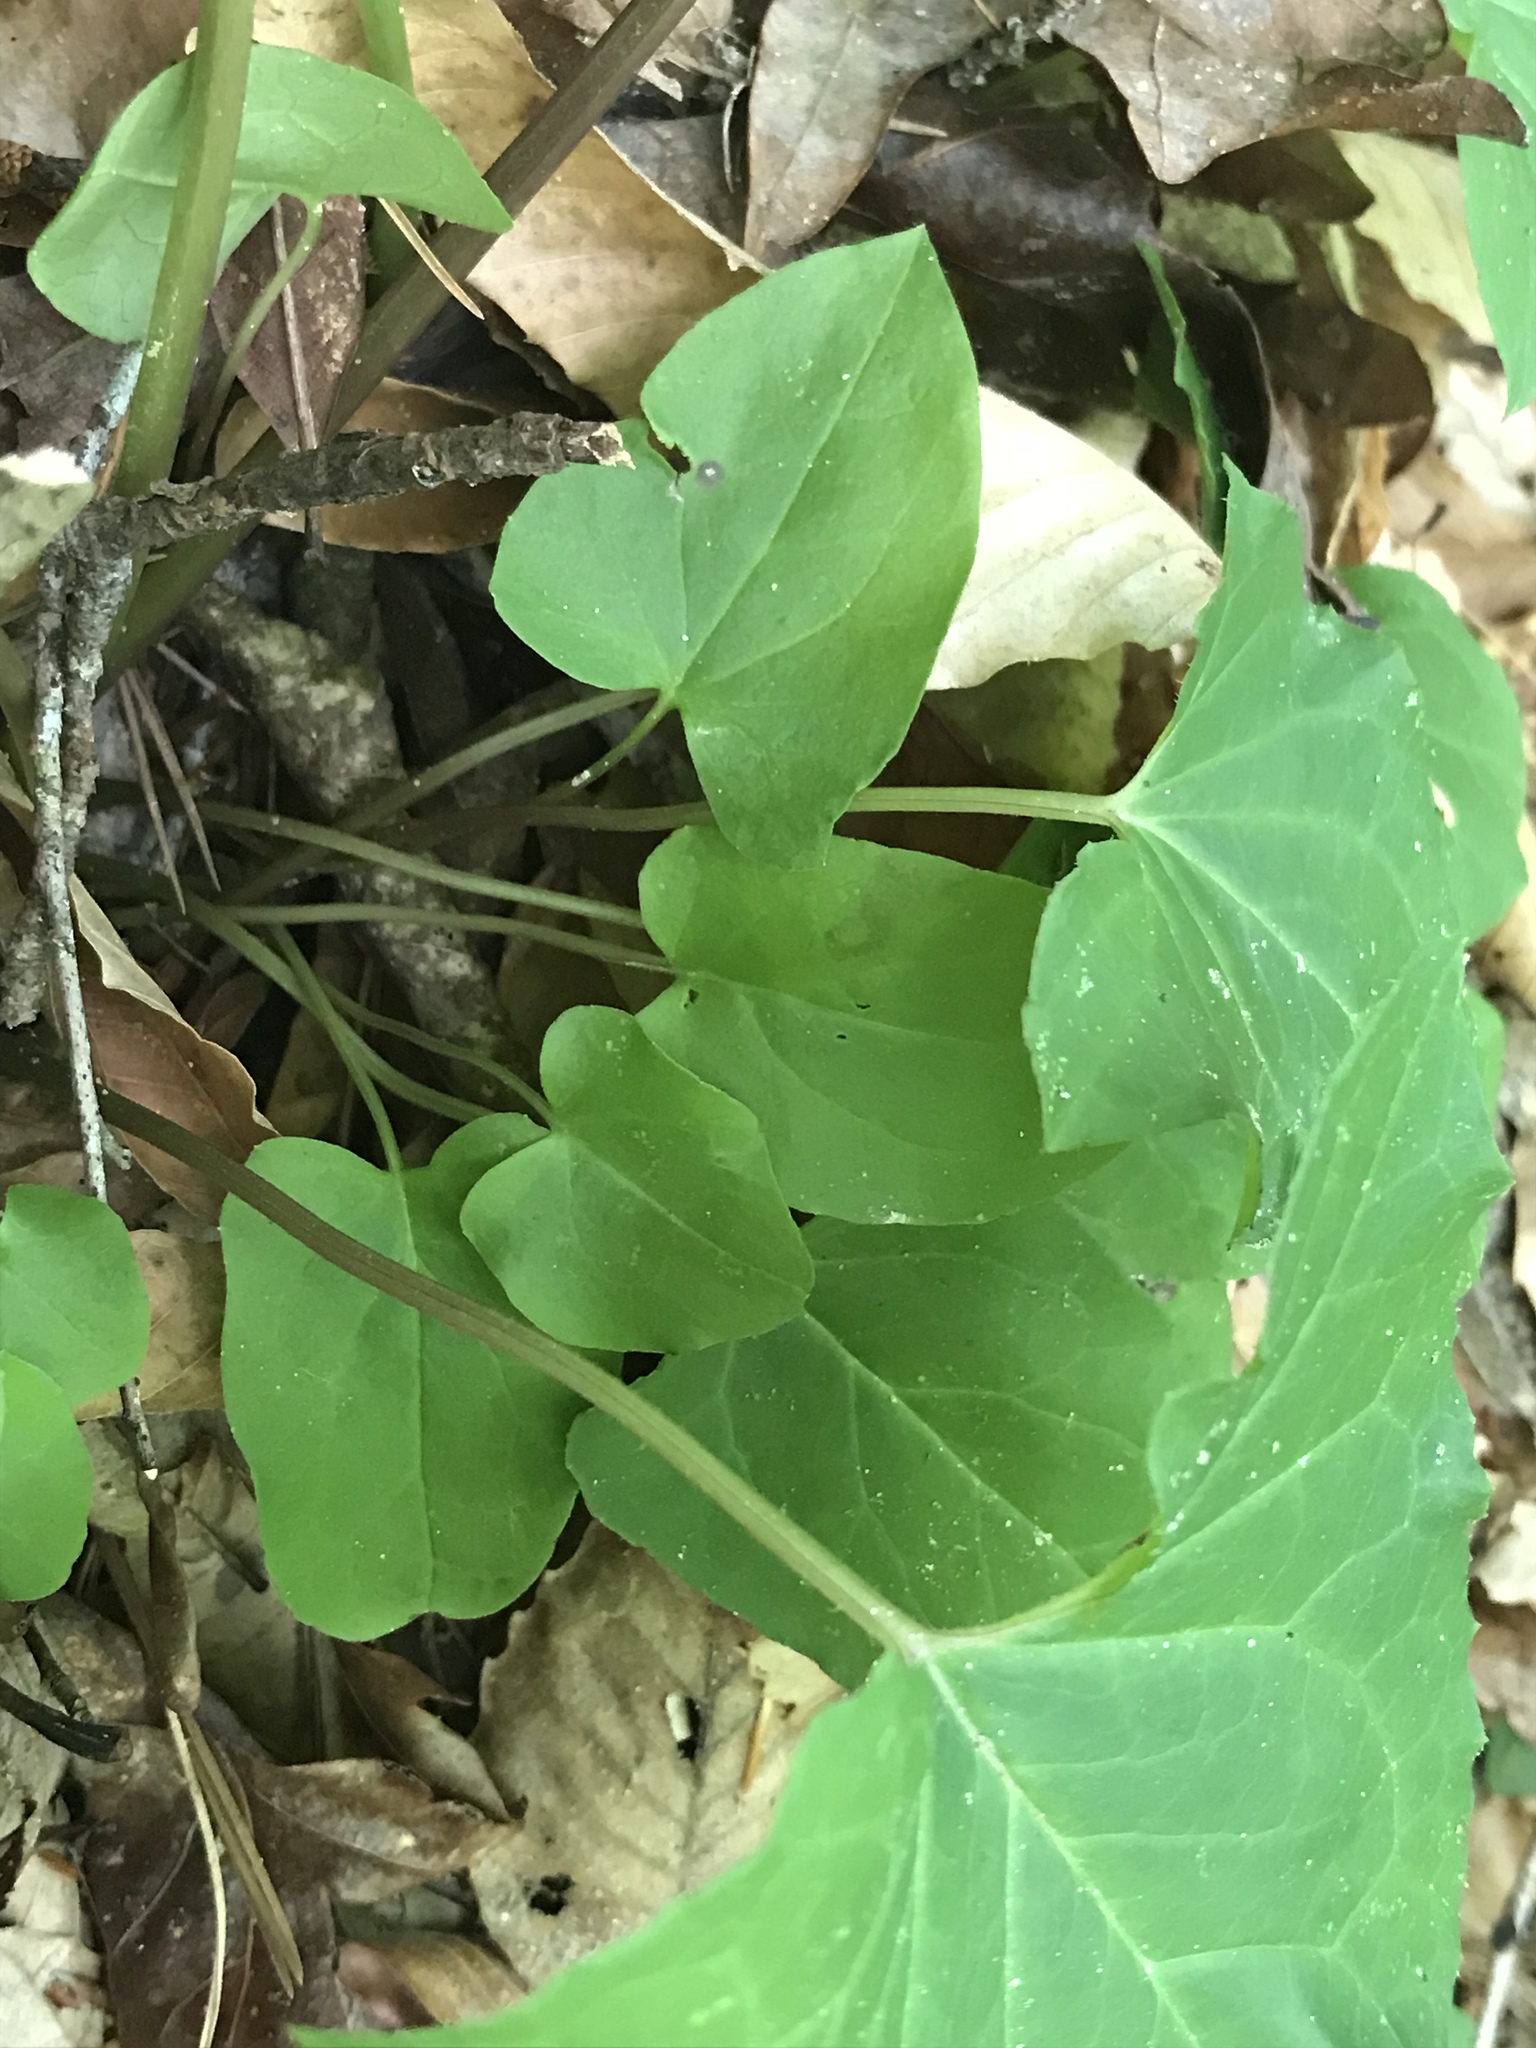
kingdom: Plantae
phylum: Tracheophyta
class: Magnoliopsida
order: Asterales
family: Asteraceae
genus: Nabalus
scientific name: Nabalus altissima
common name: Tall rattlesnakeroot
